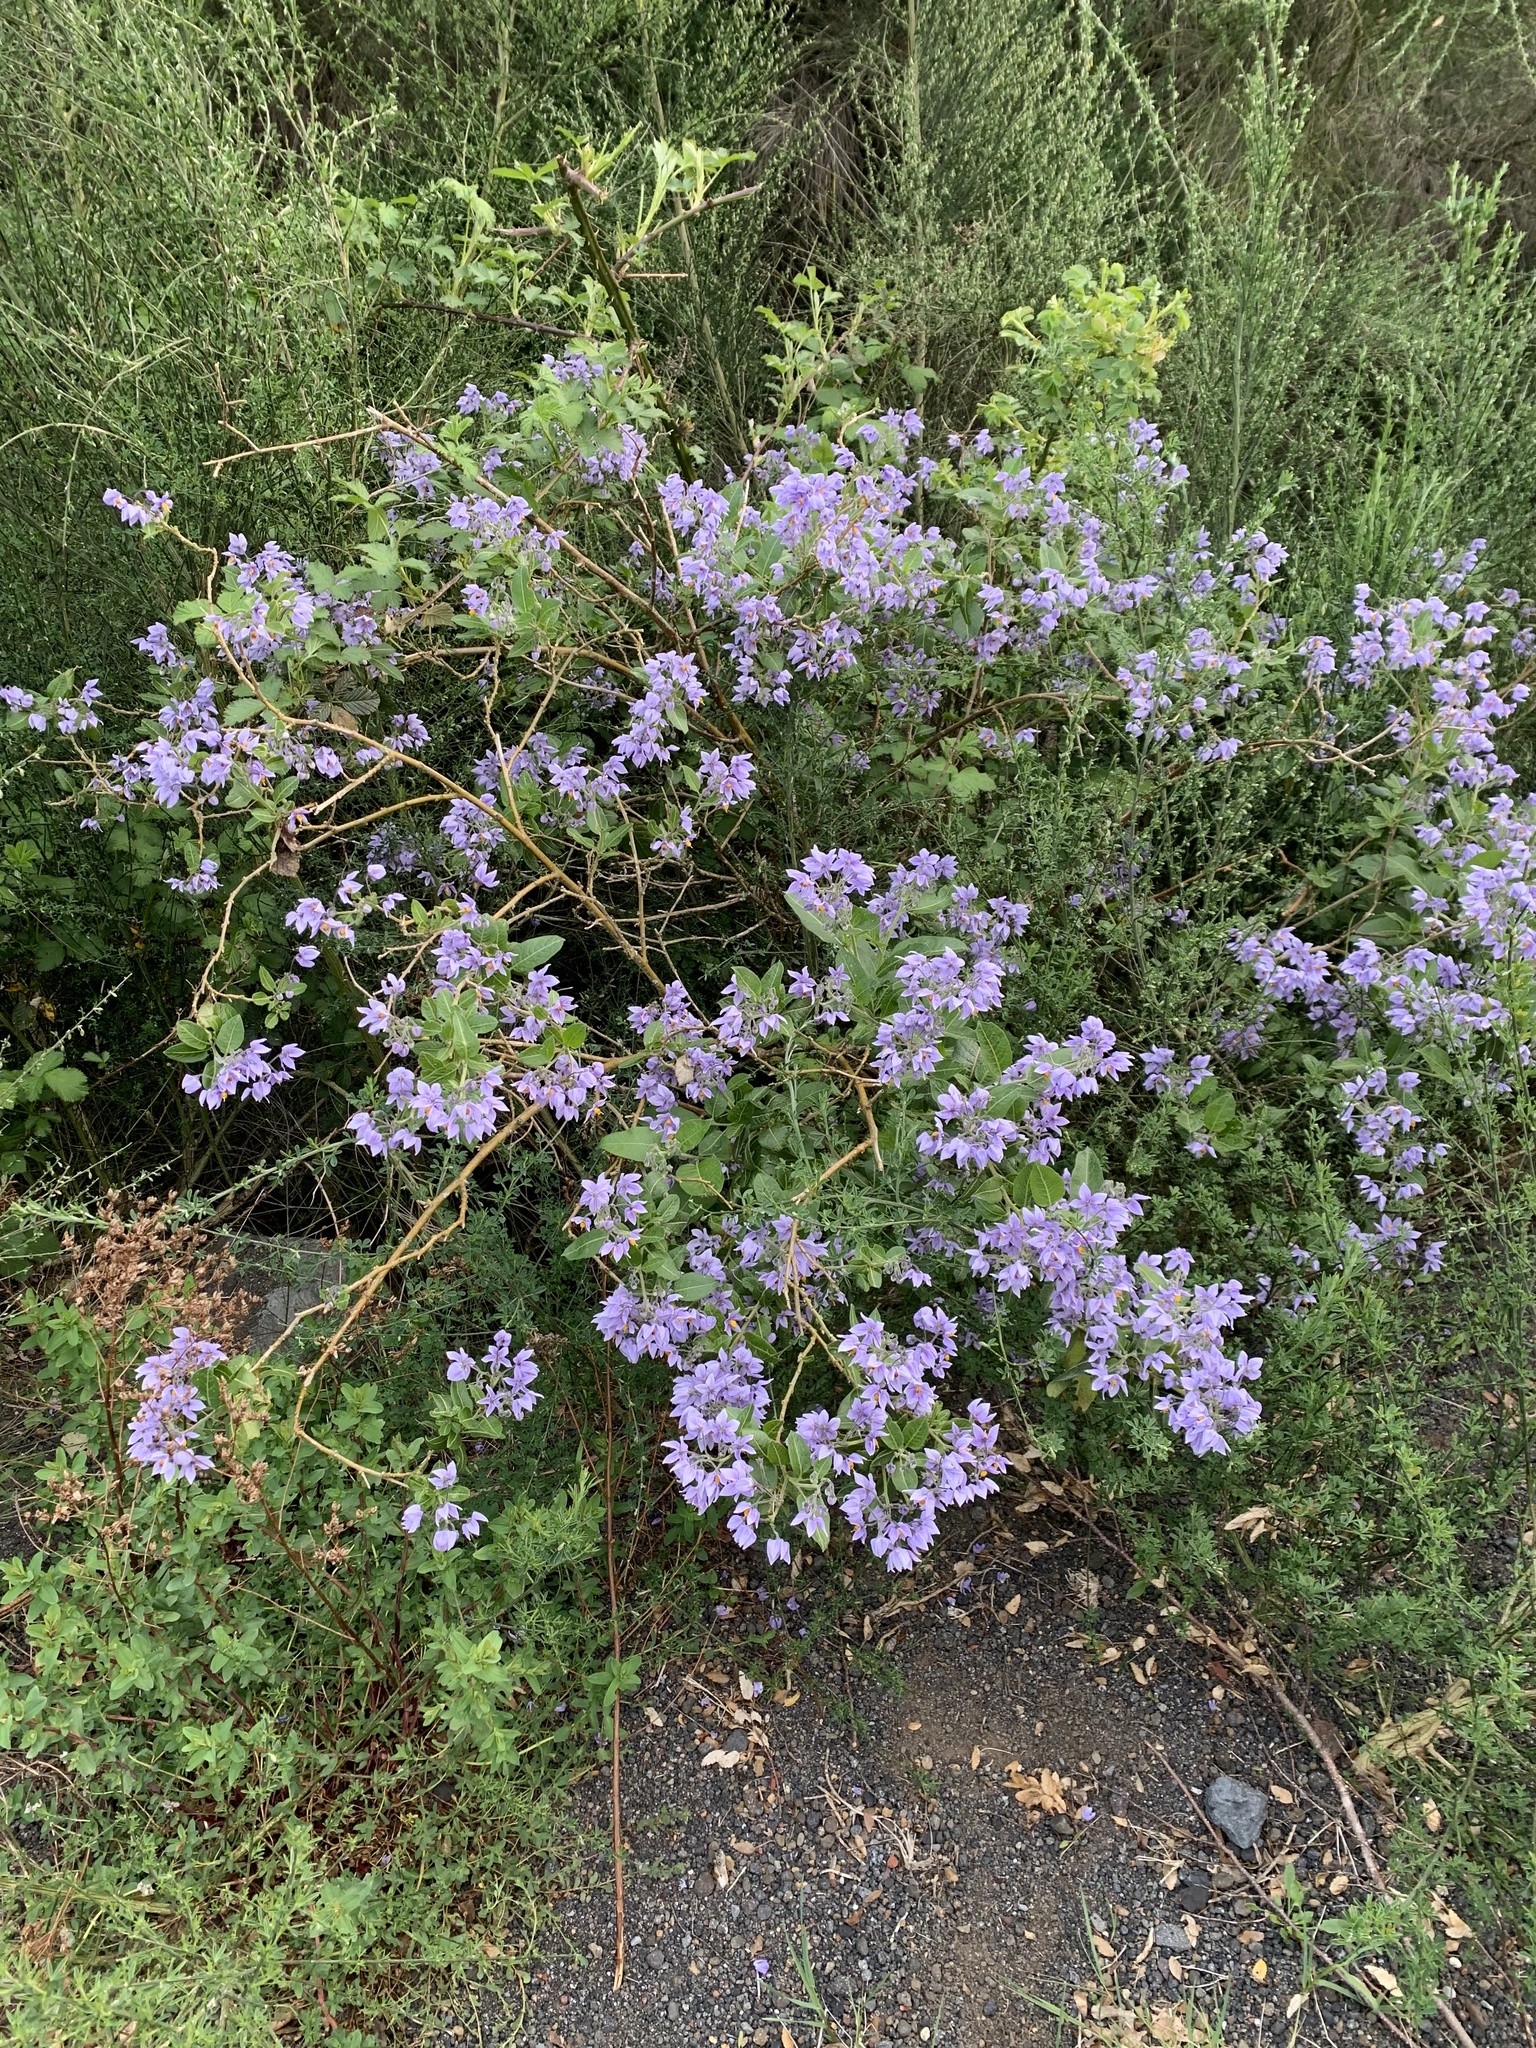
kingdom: Plantae
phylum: Tracheophyta
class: Magnoliopsida
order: Solanales
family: Solanaceae
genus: Solanum
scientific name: Solanum crispum
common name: Chilean nightshade
